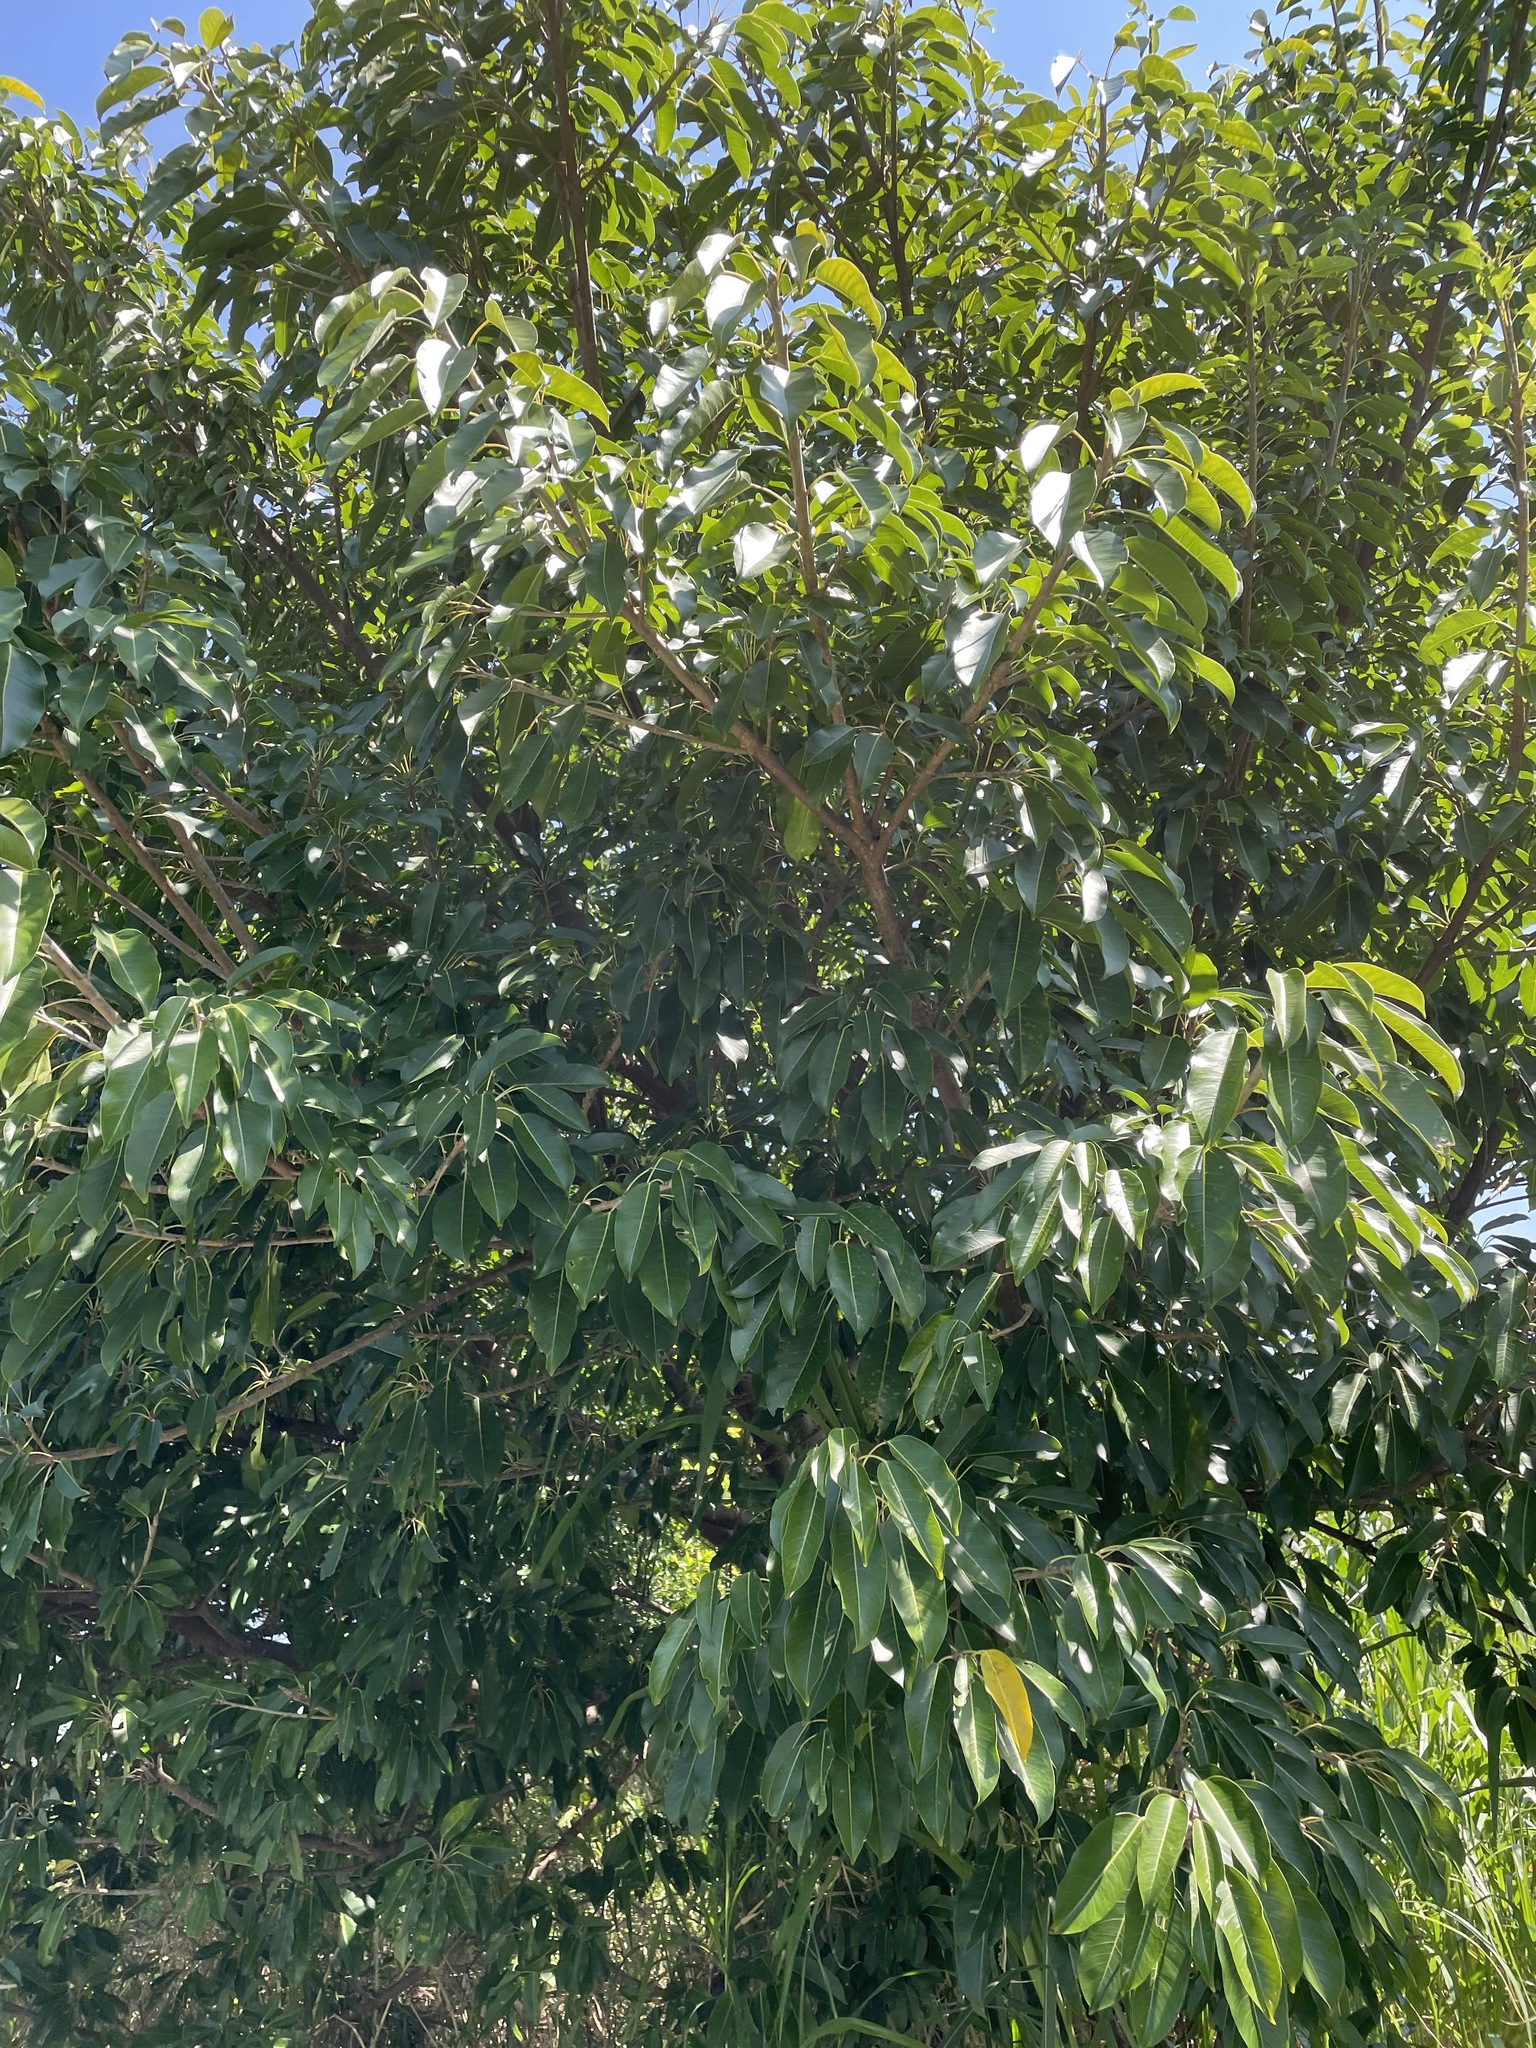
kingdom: Plantae
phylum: Tracheophyta
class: Magnoliopsida
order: Rosales
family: Moraceae
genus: Ficus
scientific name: Ficus subpisocarpa
